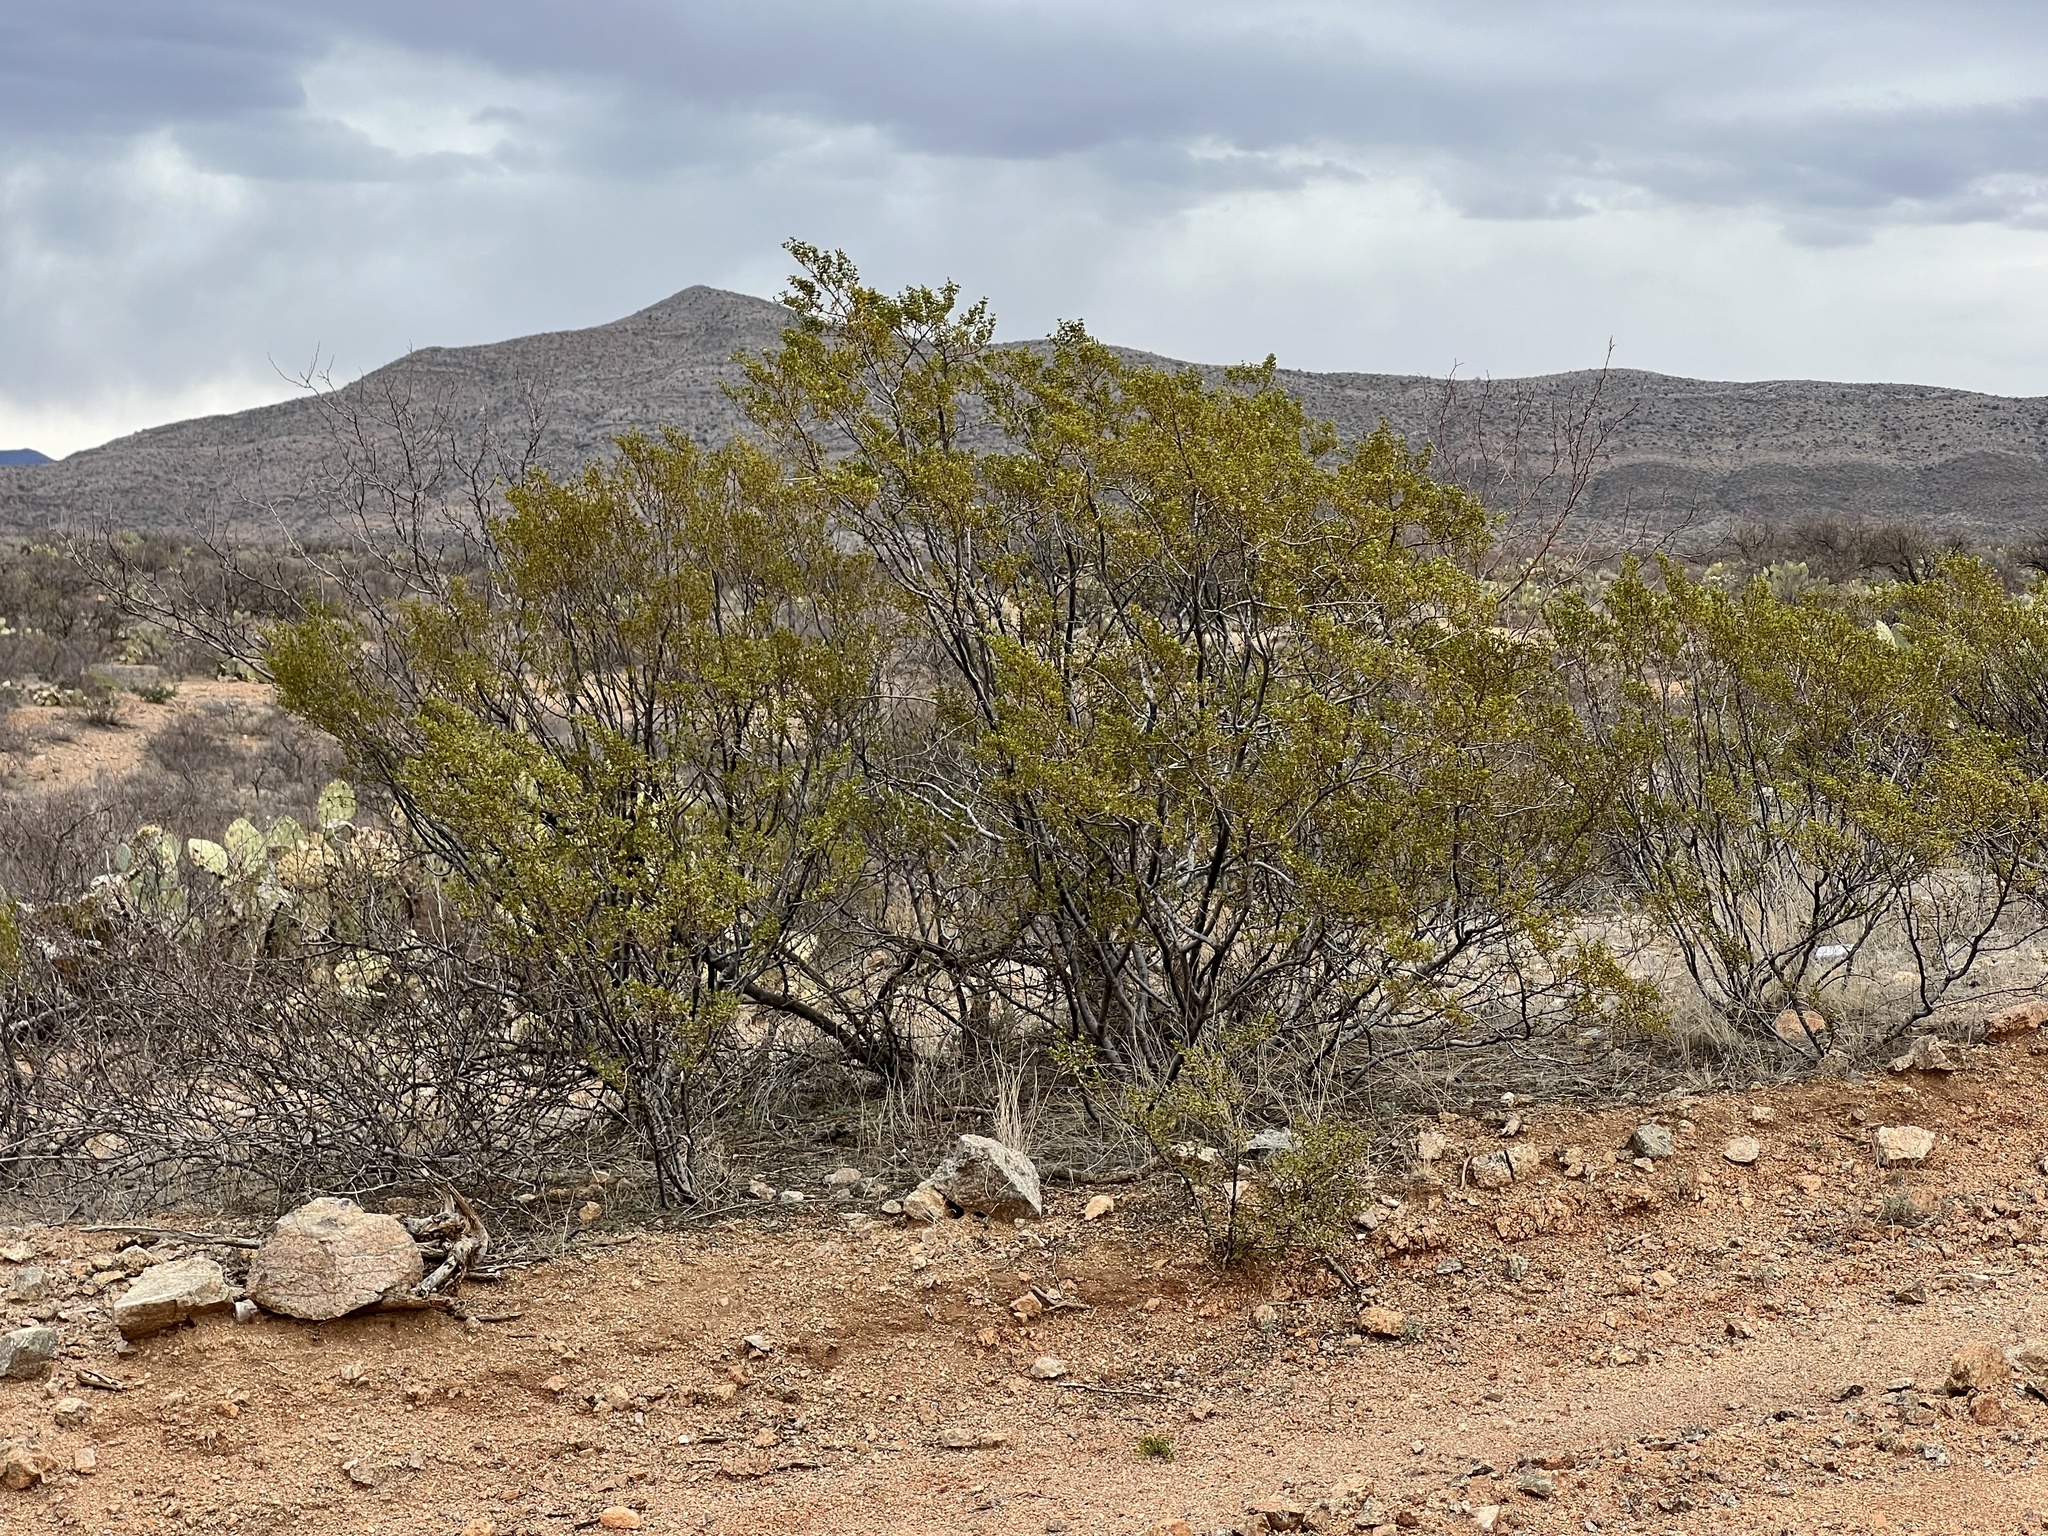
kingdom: Plantae
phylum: Tracheophyta
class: Magnoliopsida
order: Zygophyllales
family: Zygophyllaceae
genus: Larrea
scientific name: Larrea tridentata
